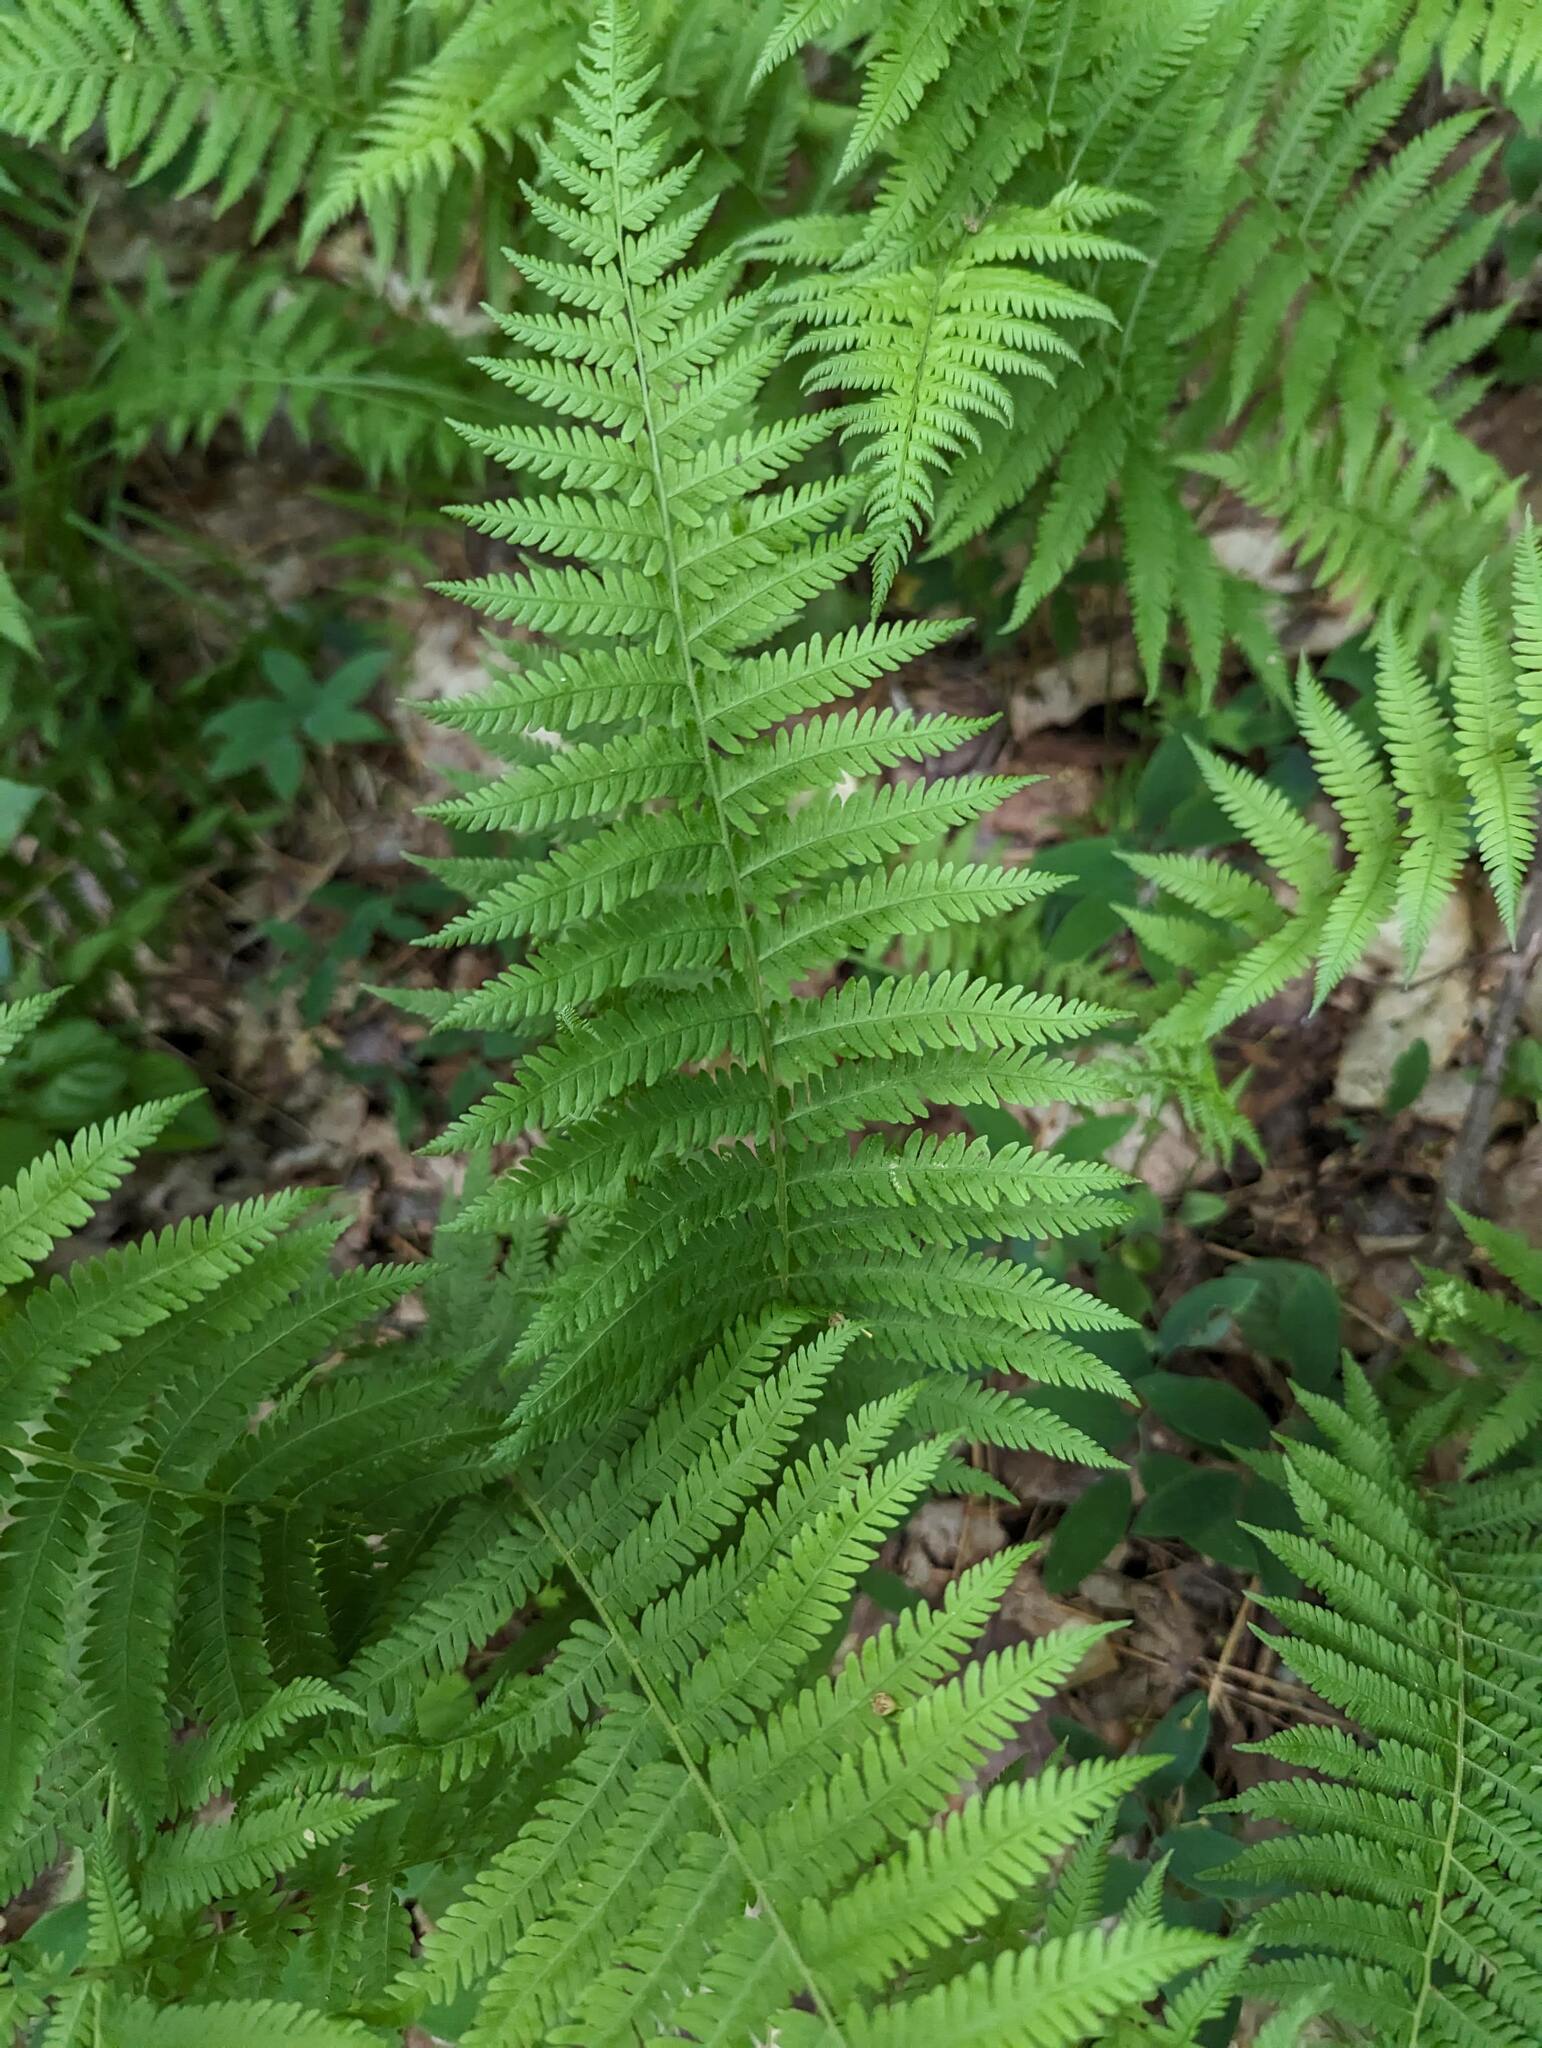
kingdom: Plantae
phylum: Tracheophyta
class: Polypodiopsida
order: Polypodiales
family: Thelypteridaceae
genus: Amauropelta
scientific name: Amauropelta noveboracensis
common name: New york fern
